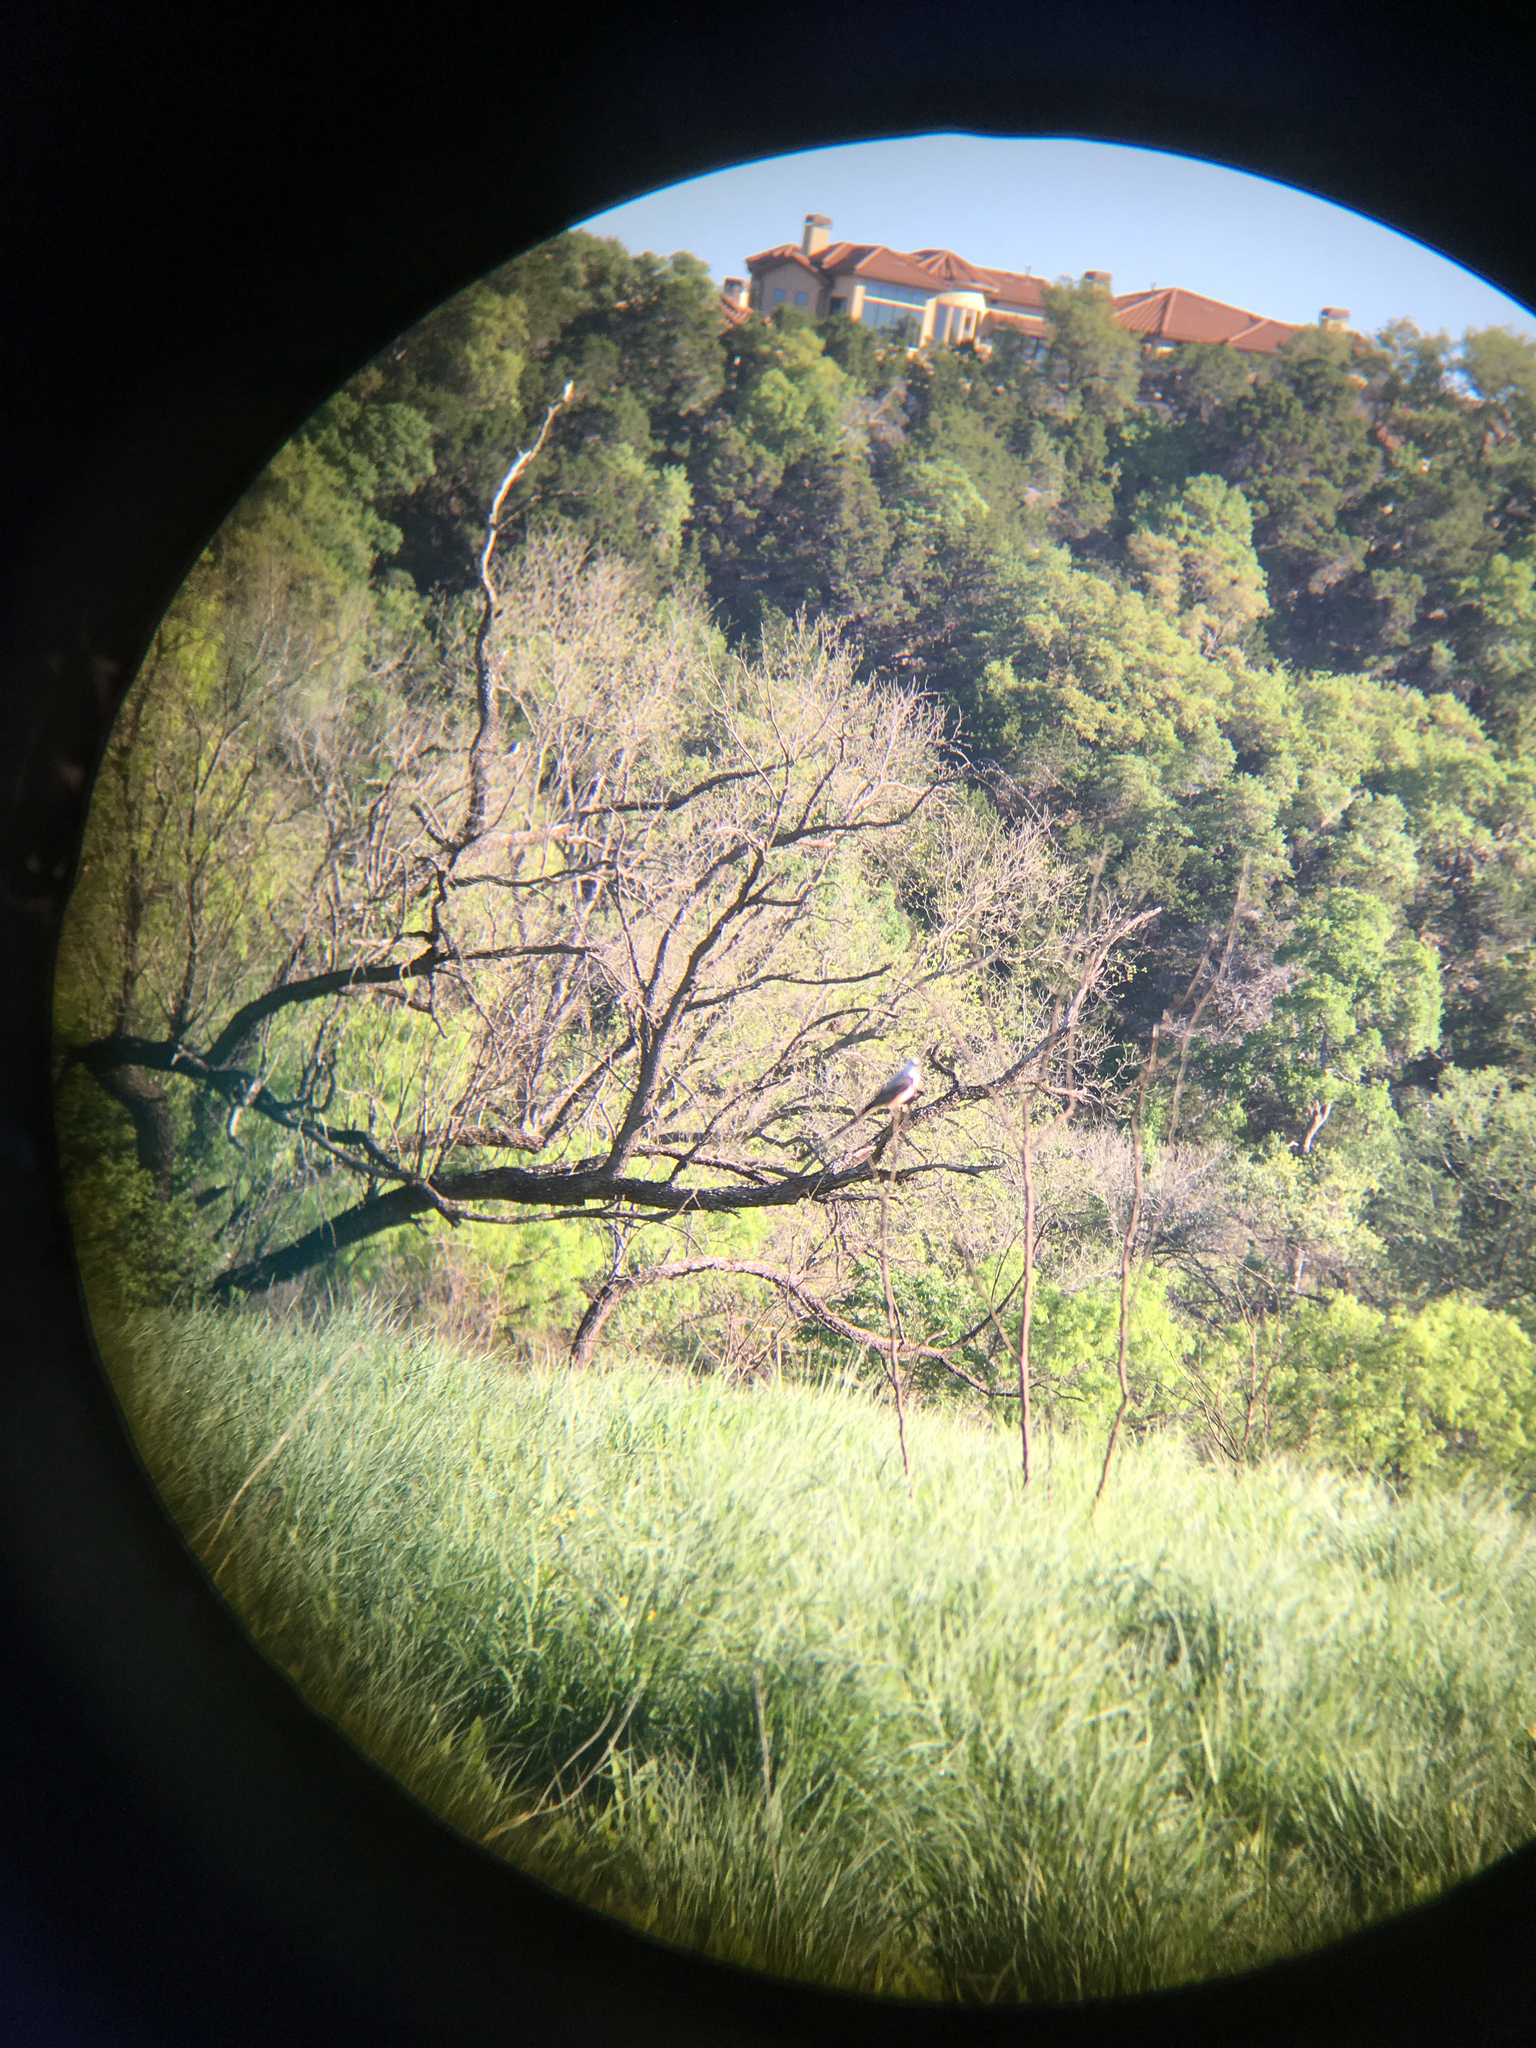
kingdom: Animalia
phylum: Chordata
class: Aves
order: Passeriformes
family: Tyrannidae
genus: Tyrannus
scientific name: Tyrannus forficatus
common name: Scissor-tailed flycatcher
